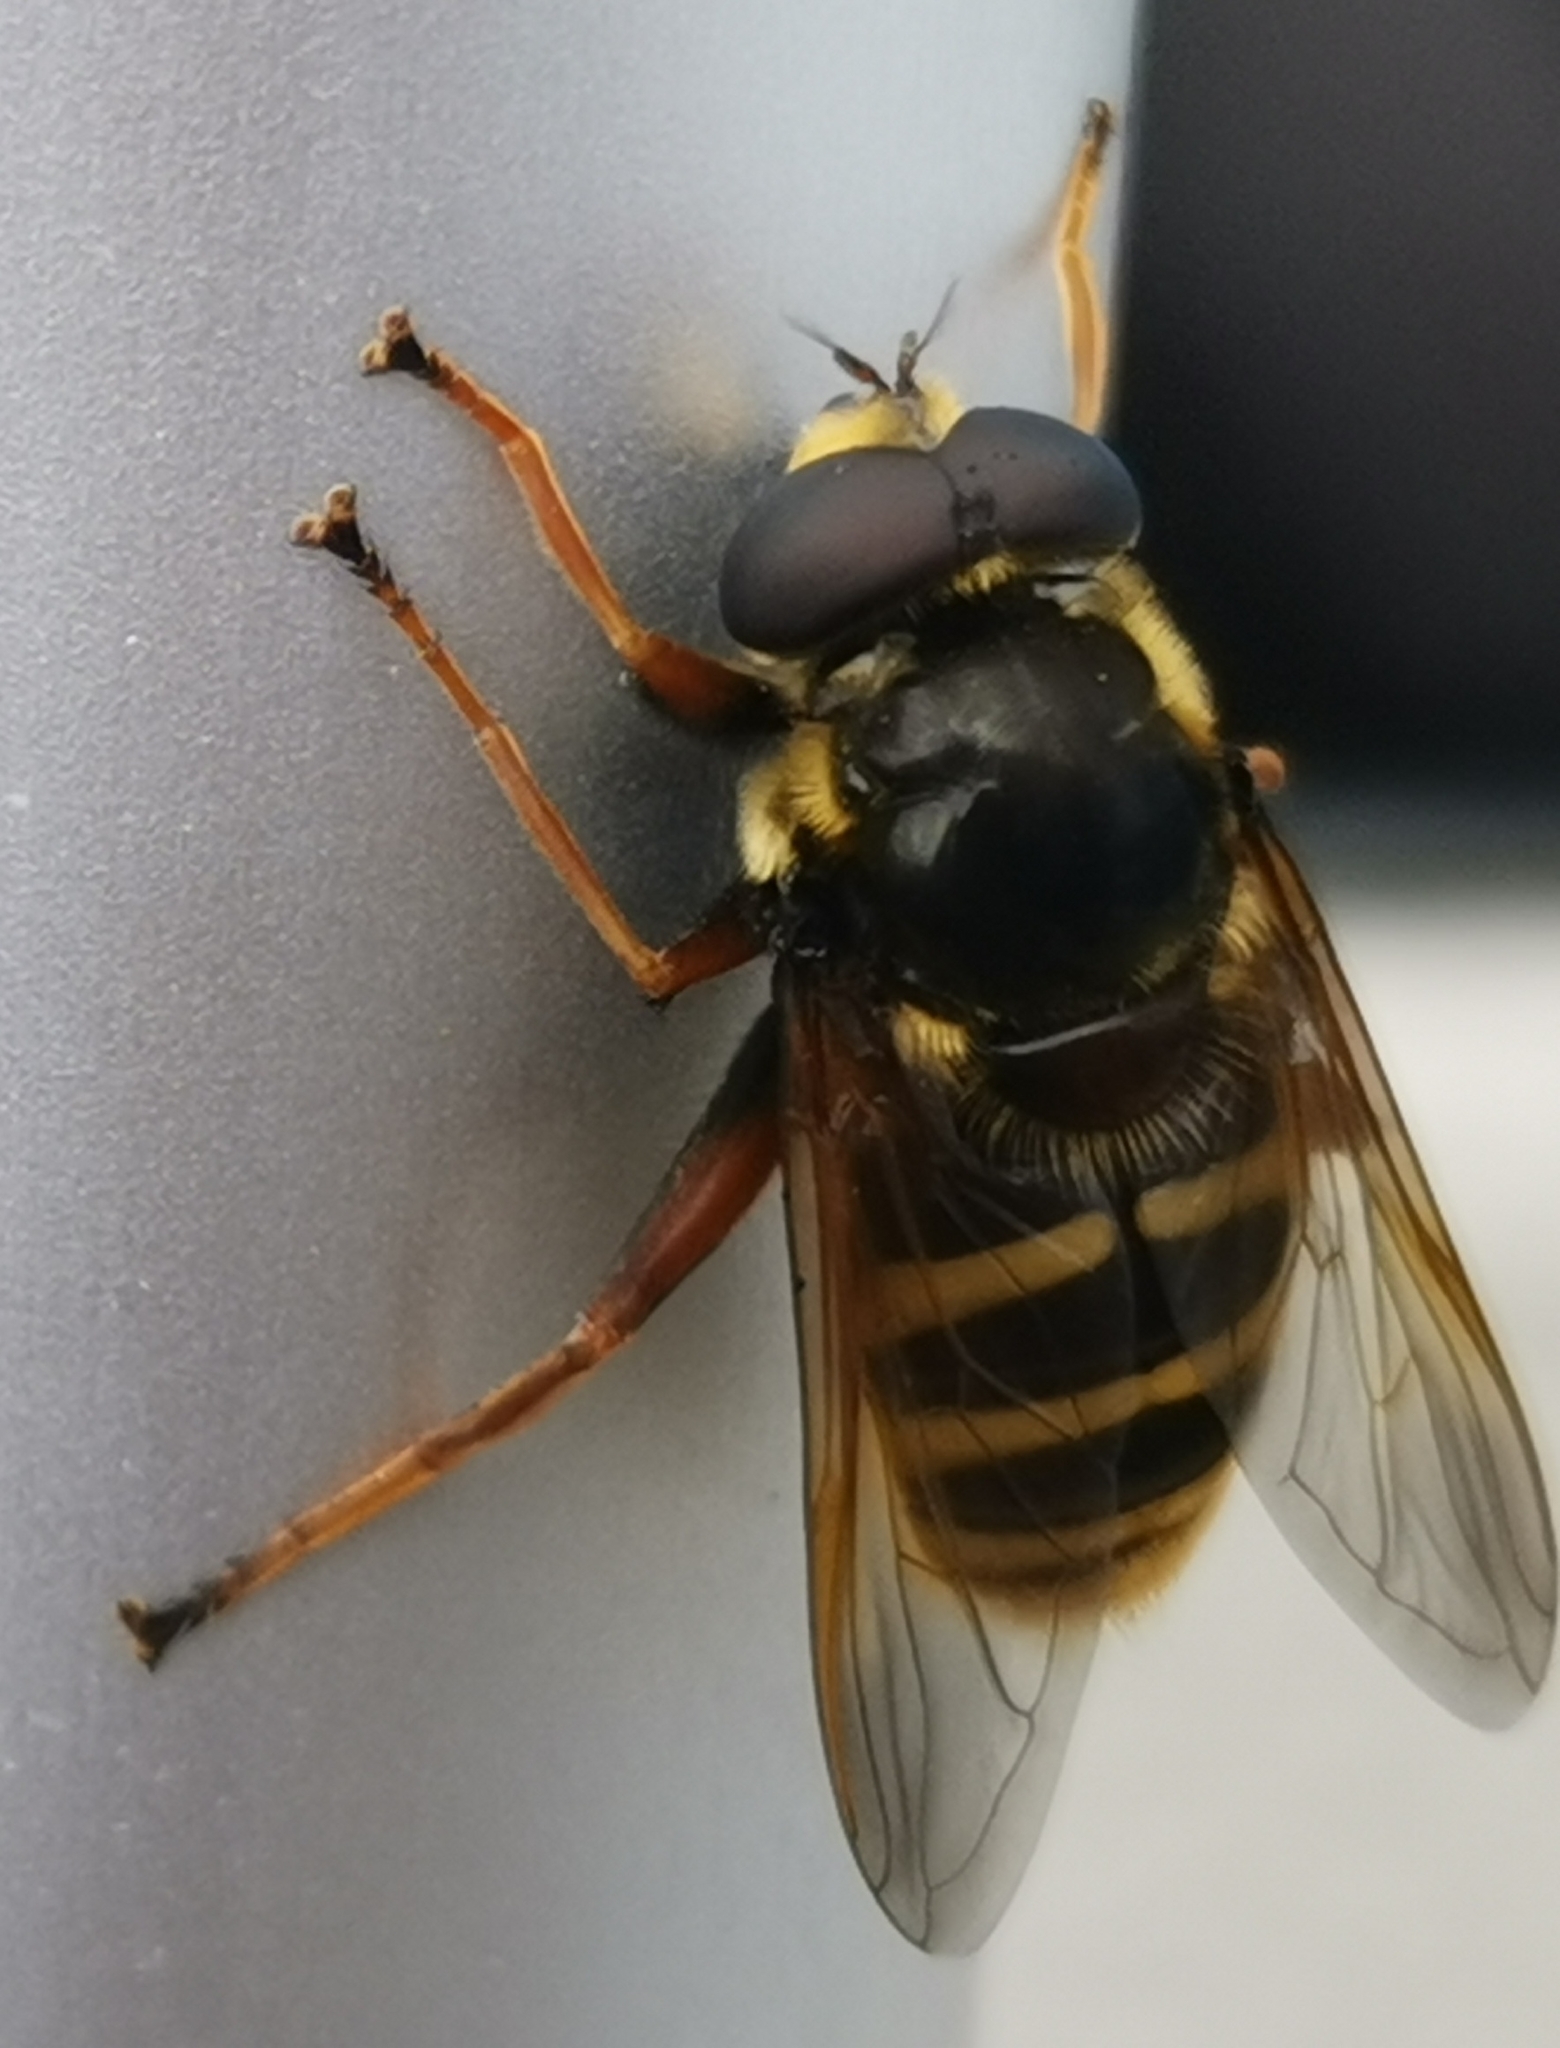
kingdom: Animalia
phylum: Arthropoda
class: Insecta
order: Diptera
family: Syrphidae
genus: Sericomyia
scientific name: Sericomyia silentis
